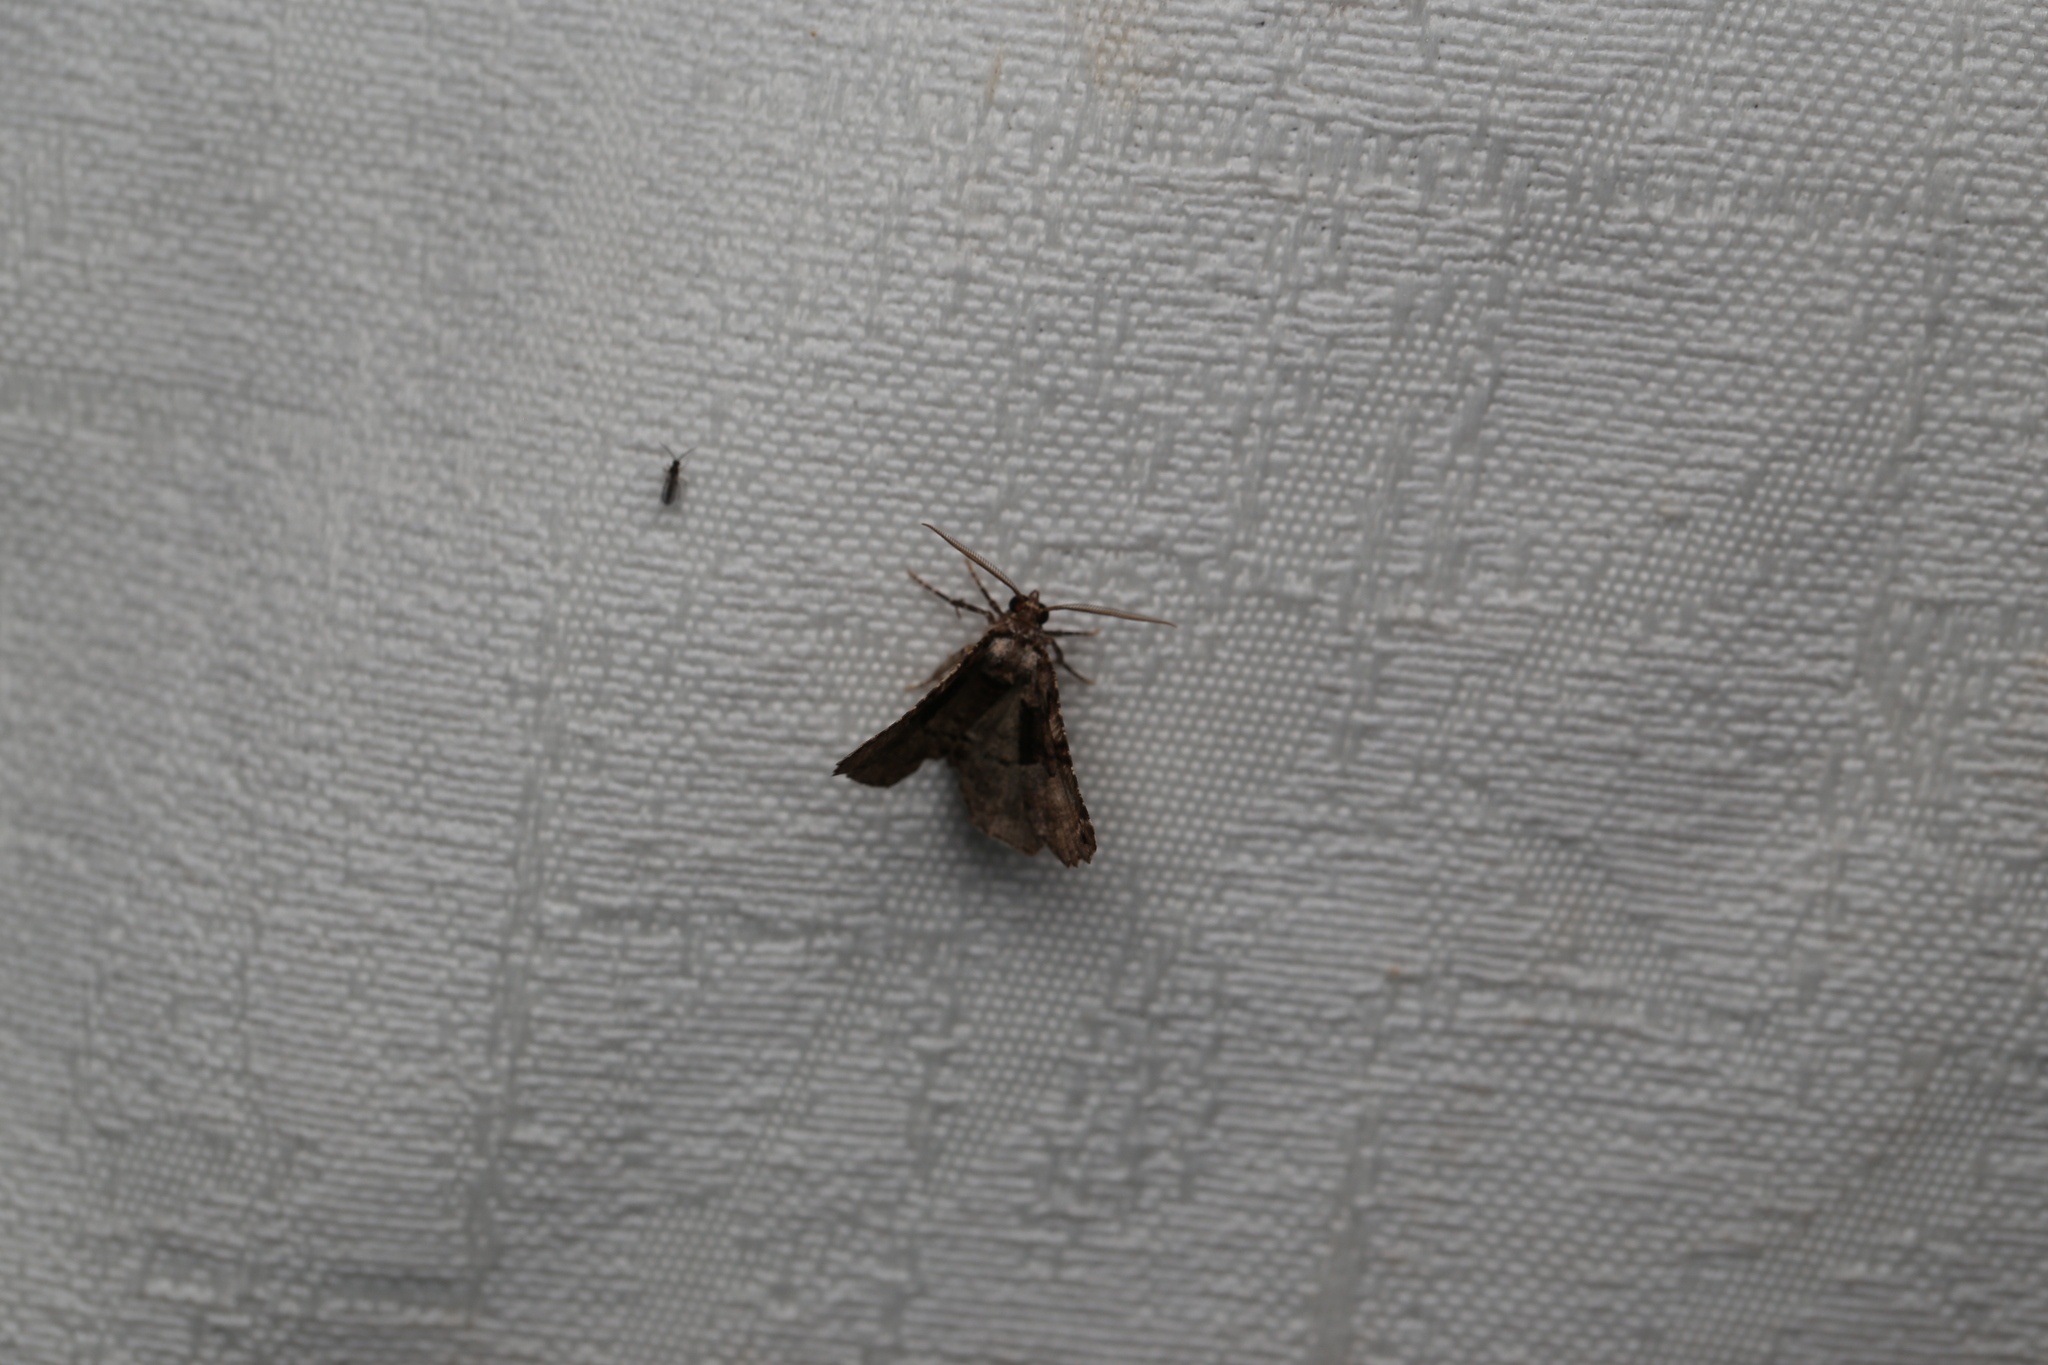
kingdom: Animalia
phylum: Arthropoda
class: Insecta
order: Lepidoptera
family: Geometridae
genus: Campaea
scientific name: Campaea Metrocampa celaenephes
